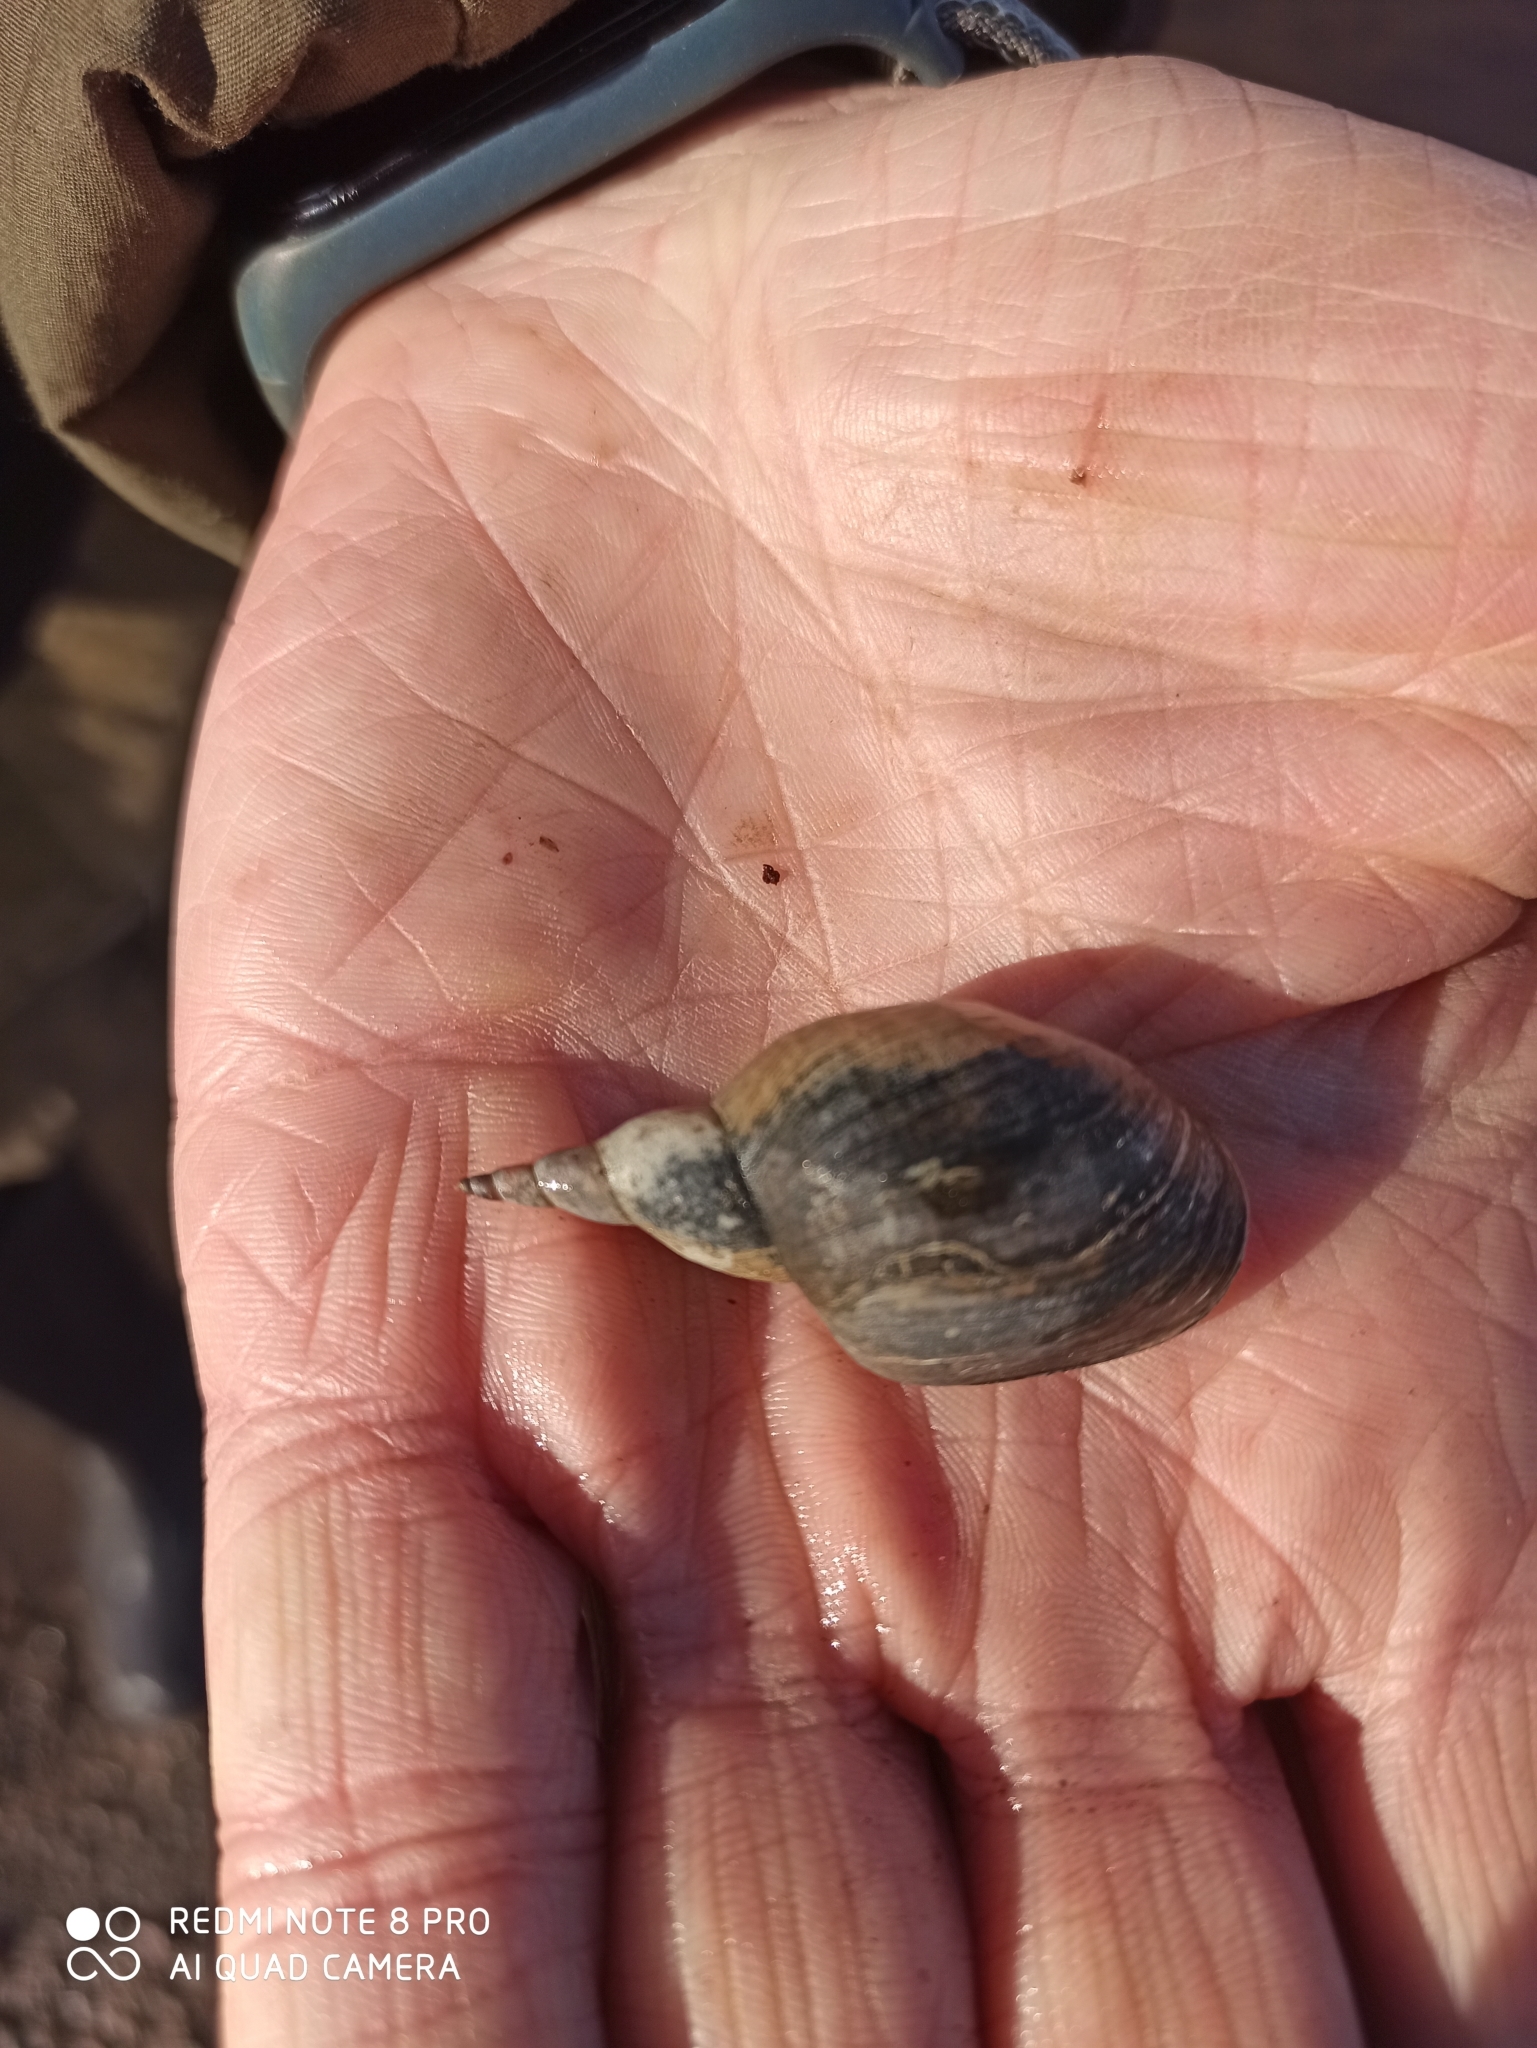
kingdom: Animalia
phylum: Mollusca
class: Gastropoda
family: Lymnaeidae
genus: Lymnaea
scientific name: Lymnaea stagnalis
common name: Great pond snail
